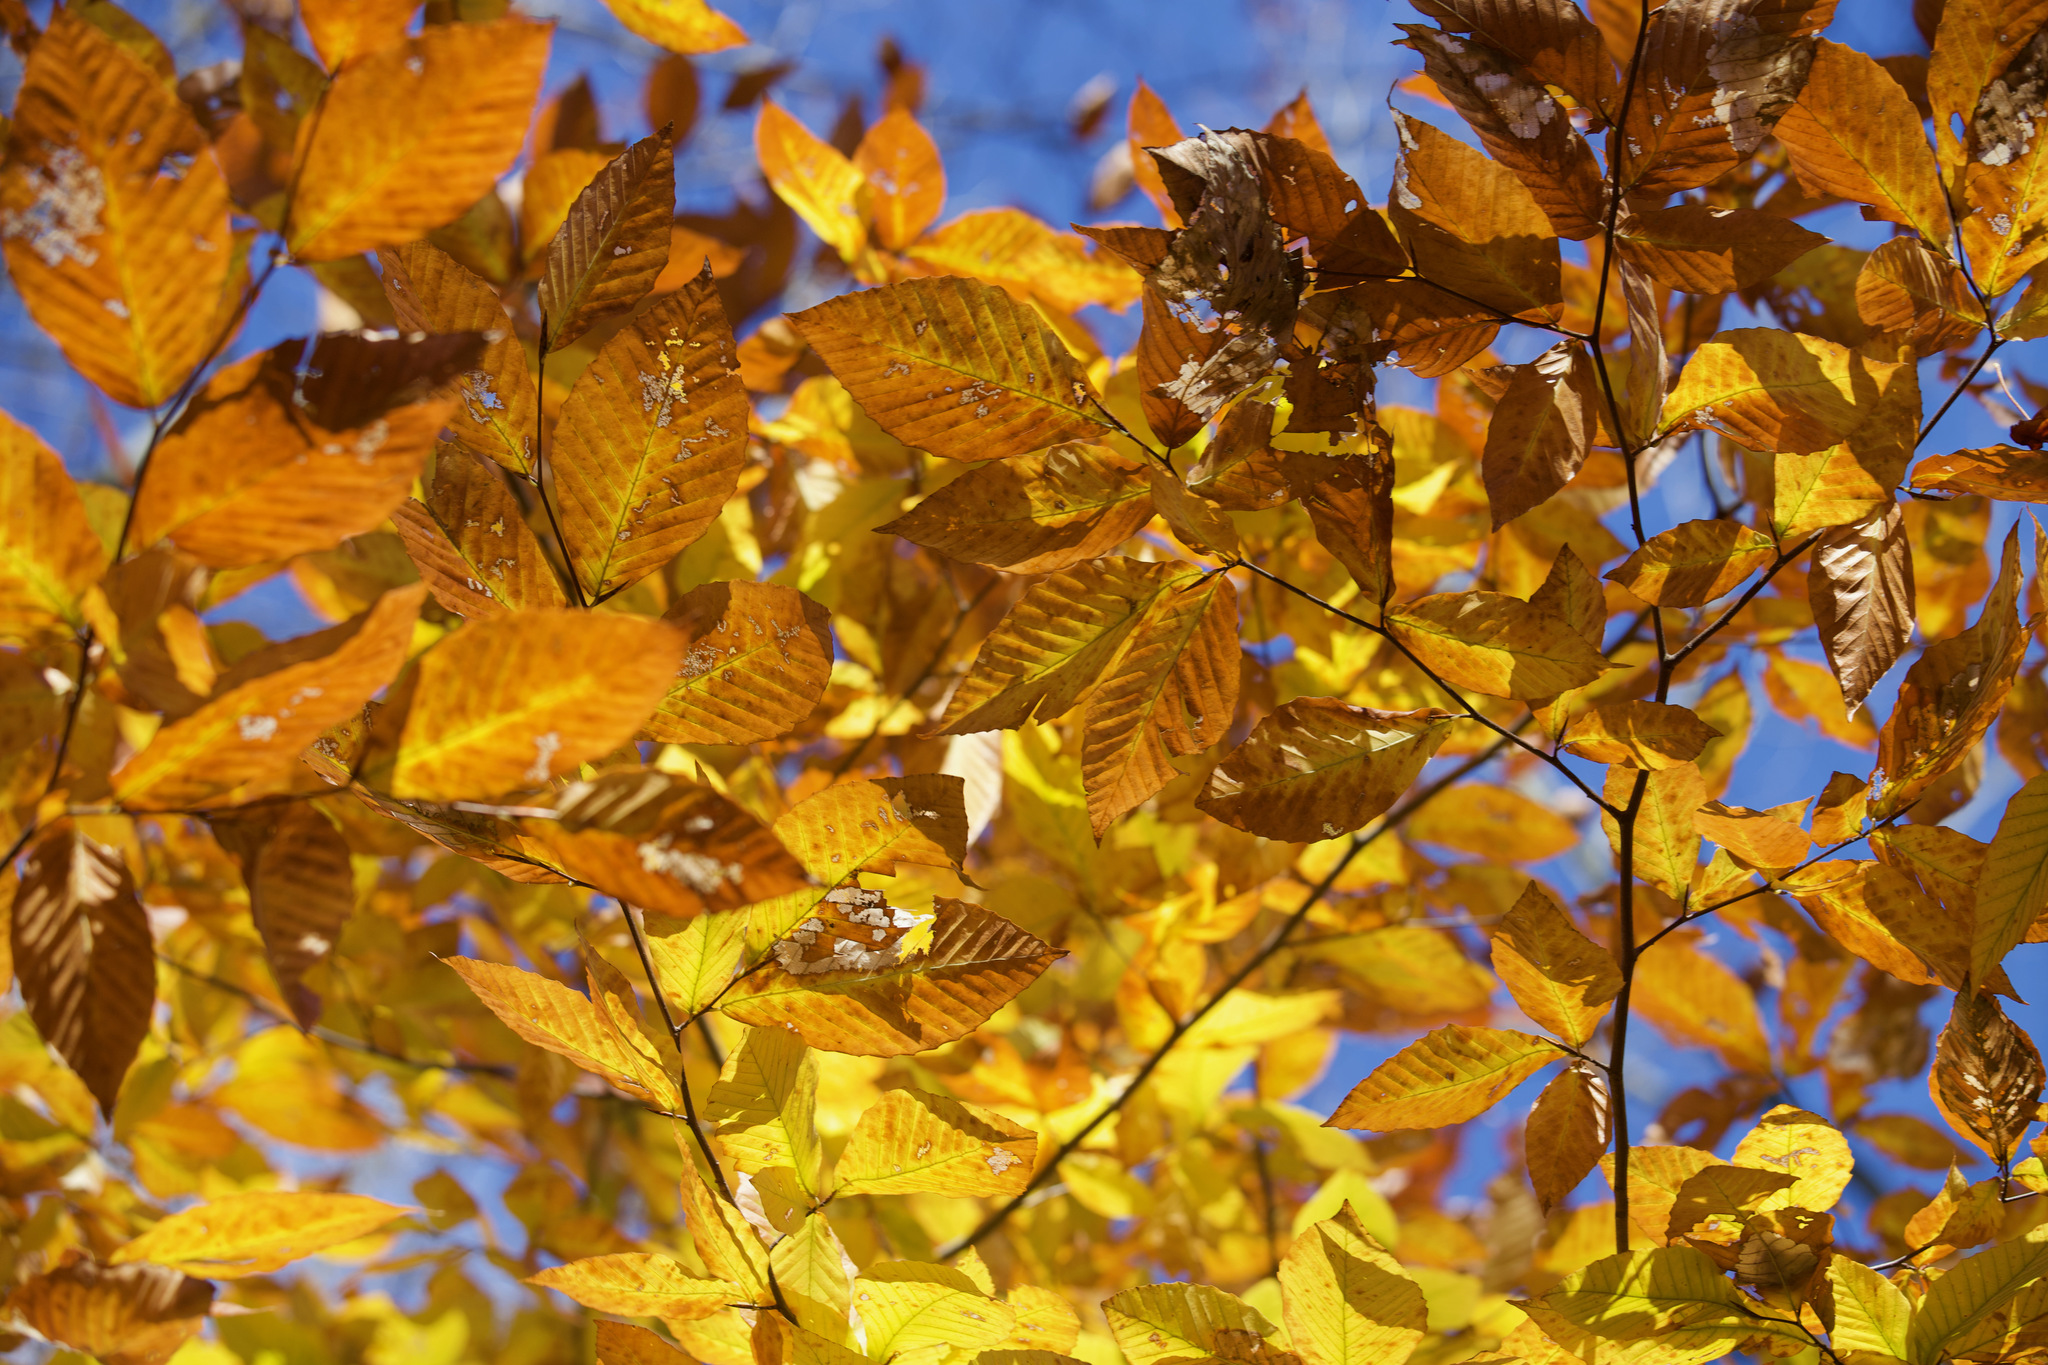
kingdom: Plantae
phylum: Tracheophyta
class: Magnoliopsida
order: Fagales
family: Fagaceae
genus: Fagus
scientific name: Fagus grandifolia
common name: American beech
